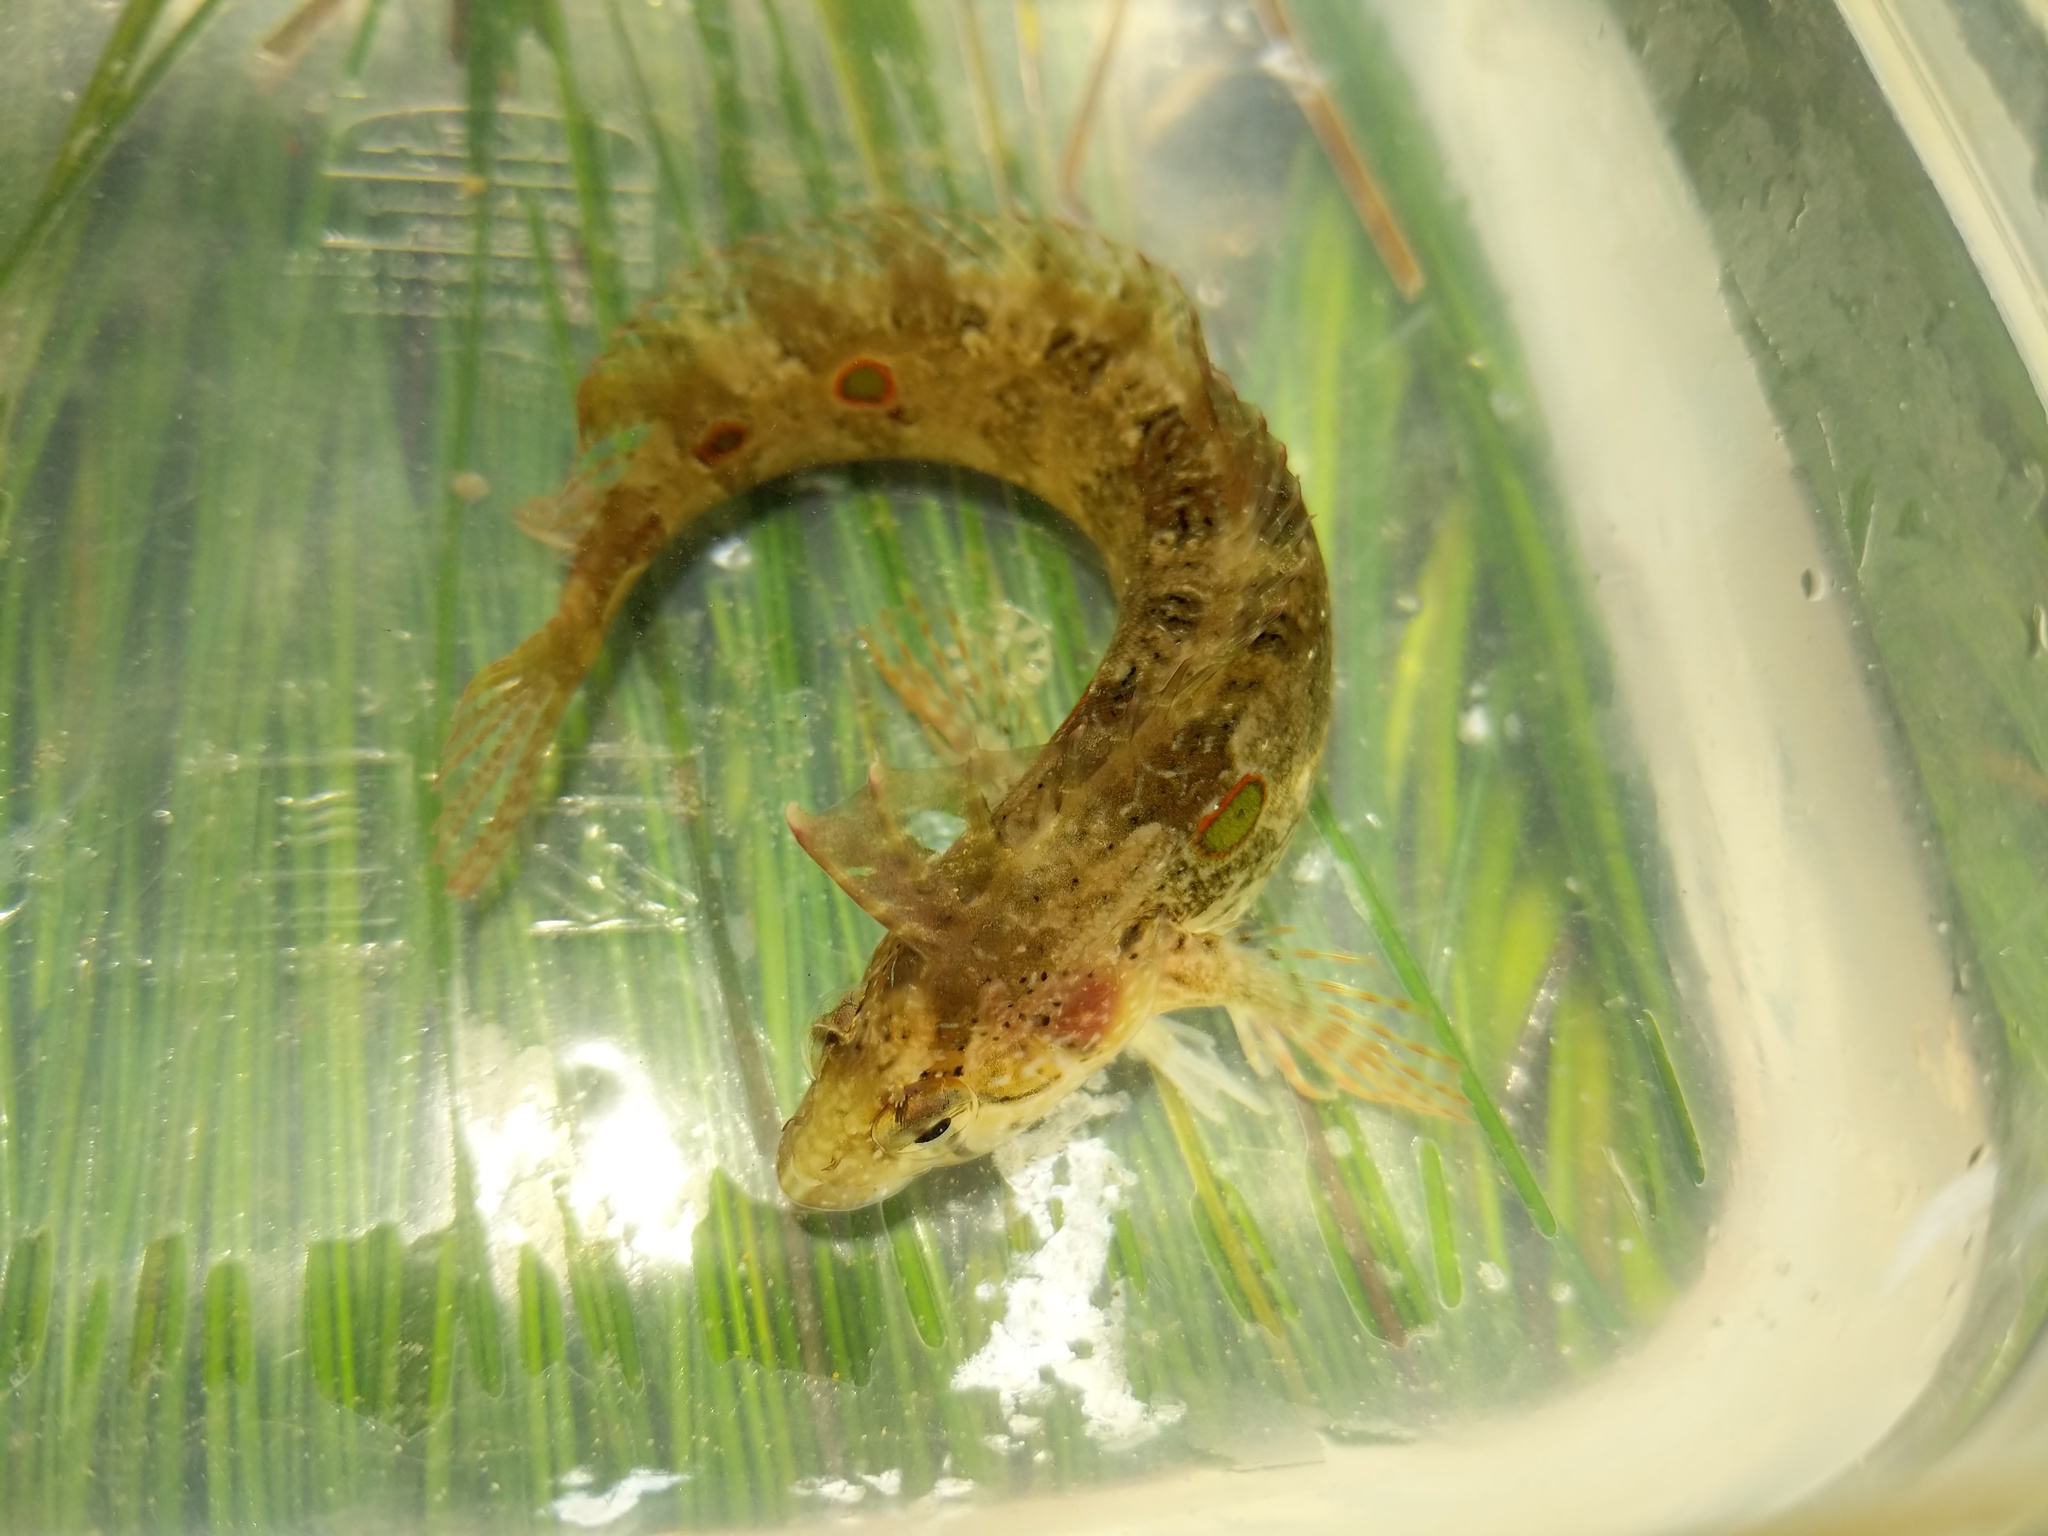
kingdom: Animalia
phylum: Chordata
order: Perciformes
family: Clinidae
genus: Gibbonsia
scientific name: Gibbonsia elegans
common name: Spotted kelpfish
